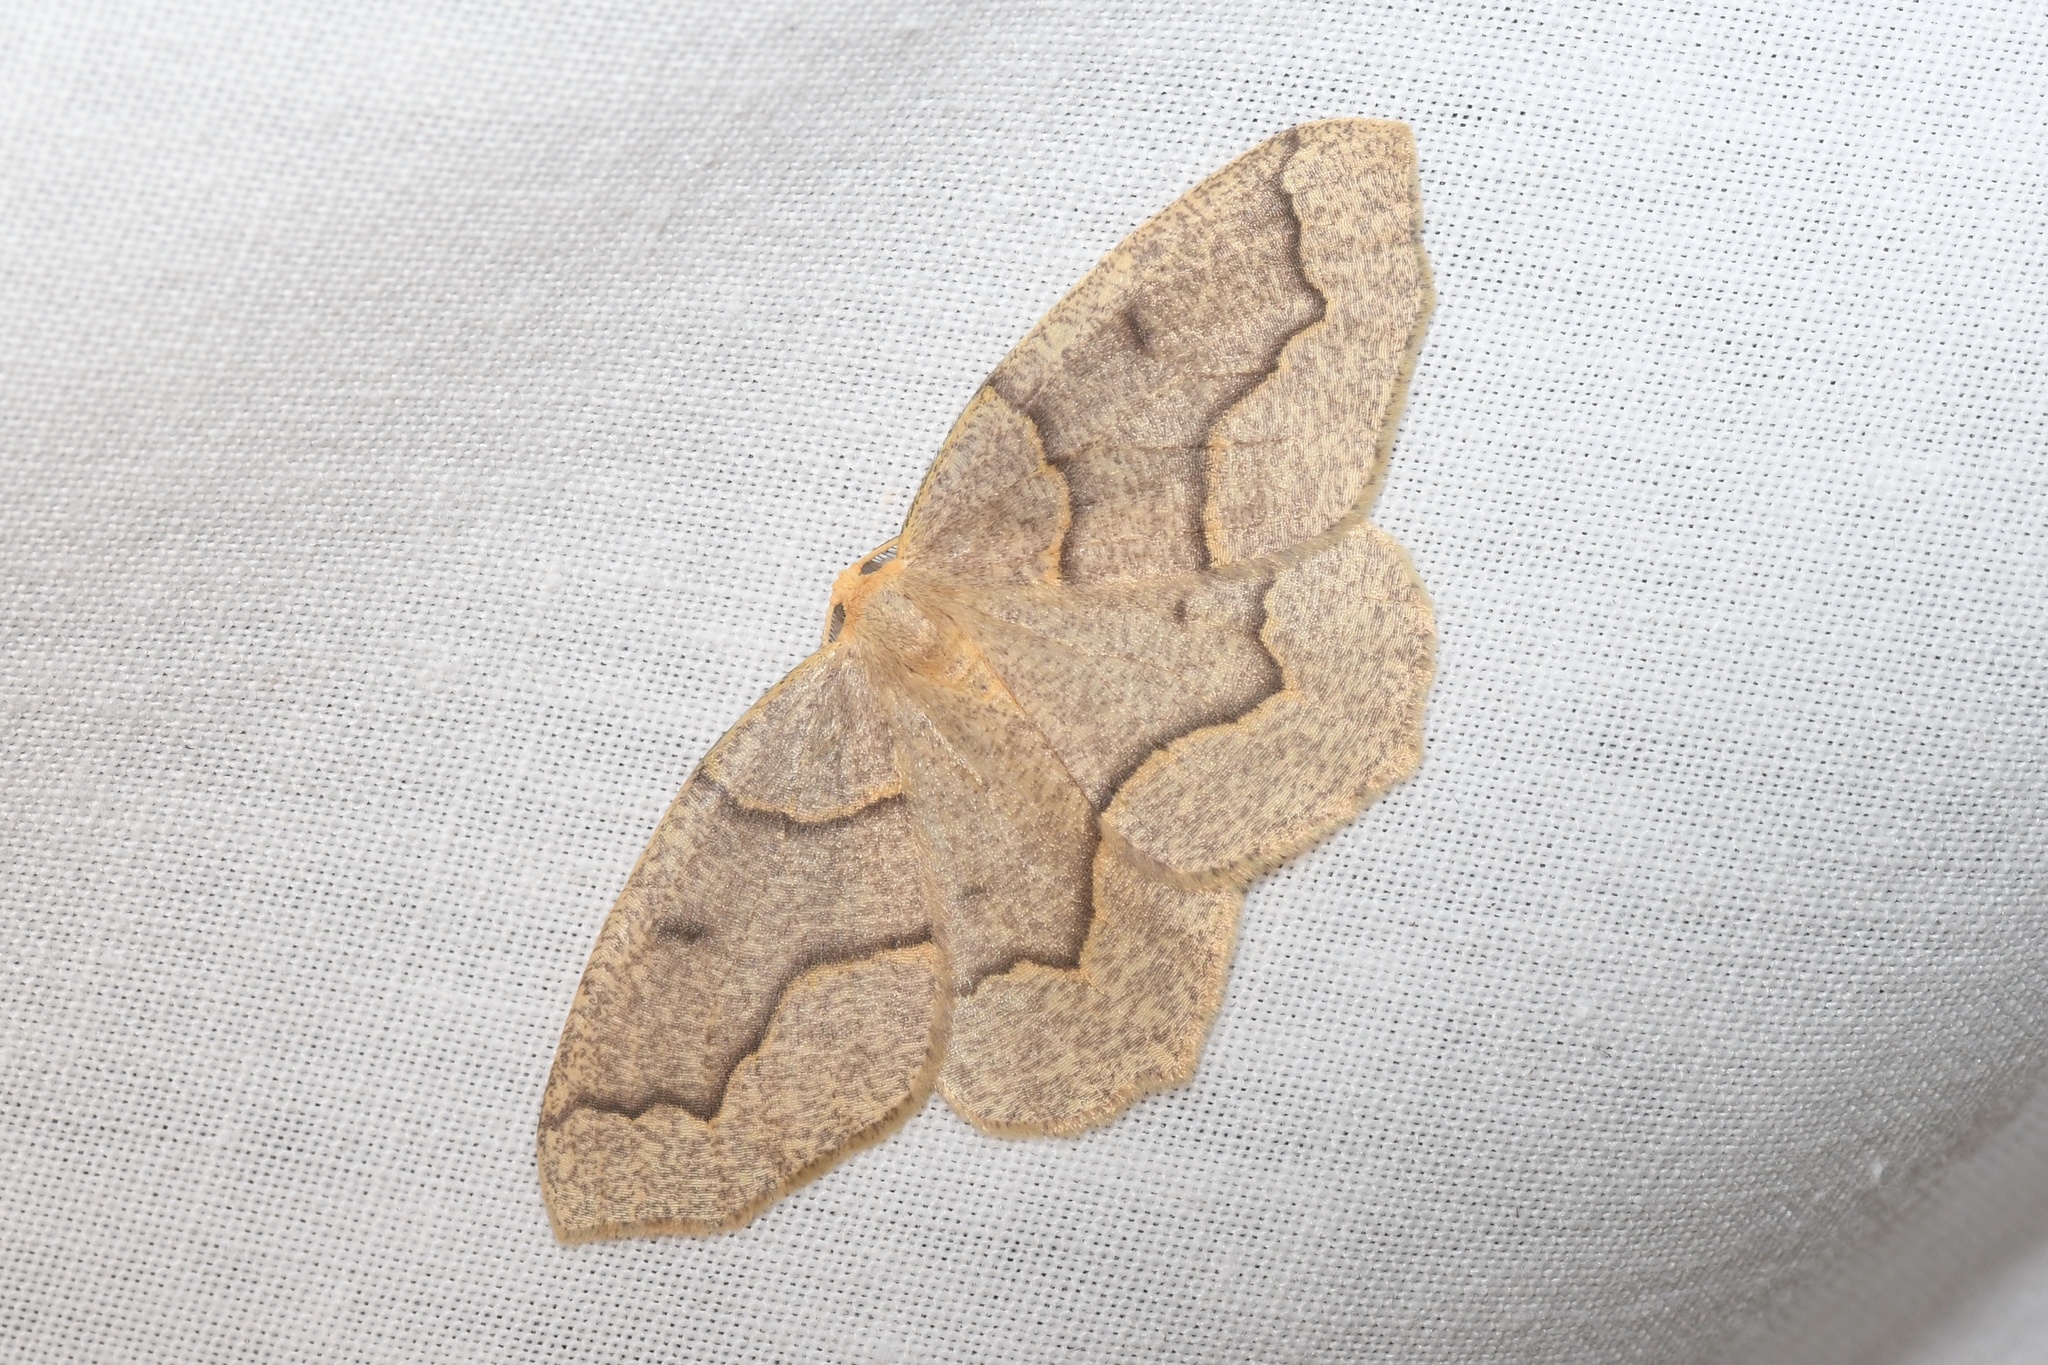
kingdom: Animalia
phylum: Arthropoda
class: Insecta
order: Lepidoptera
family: Geometridae
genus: Lambdina
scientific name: Lambdina fiscellaria
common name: Hemlock looper
